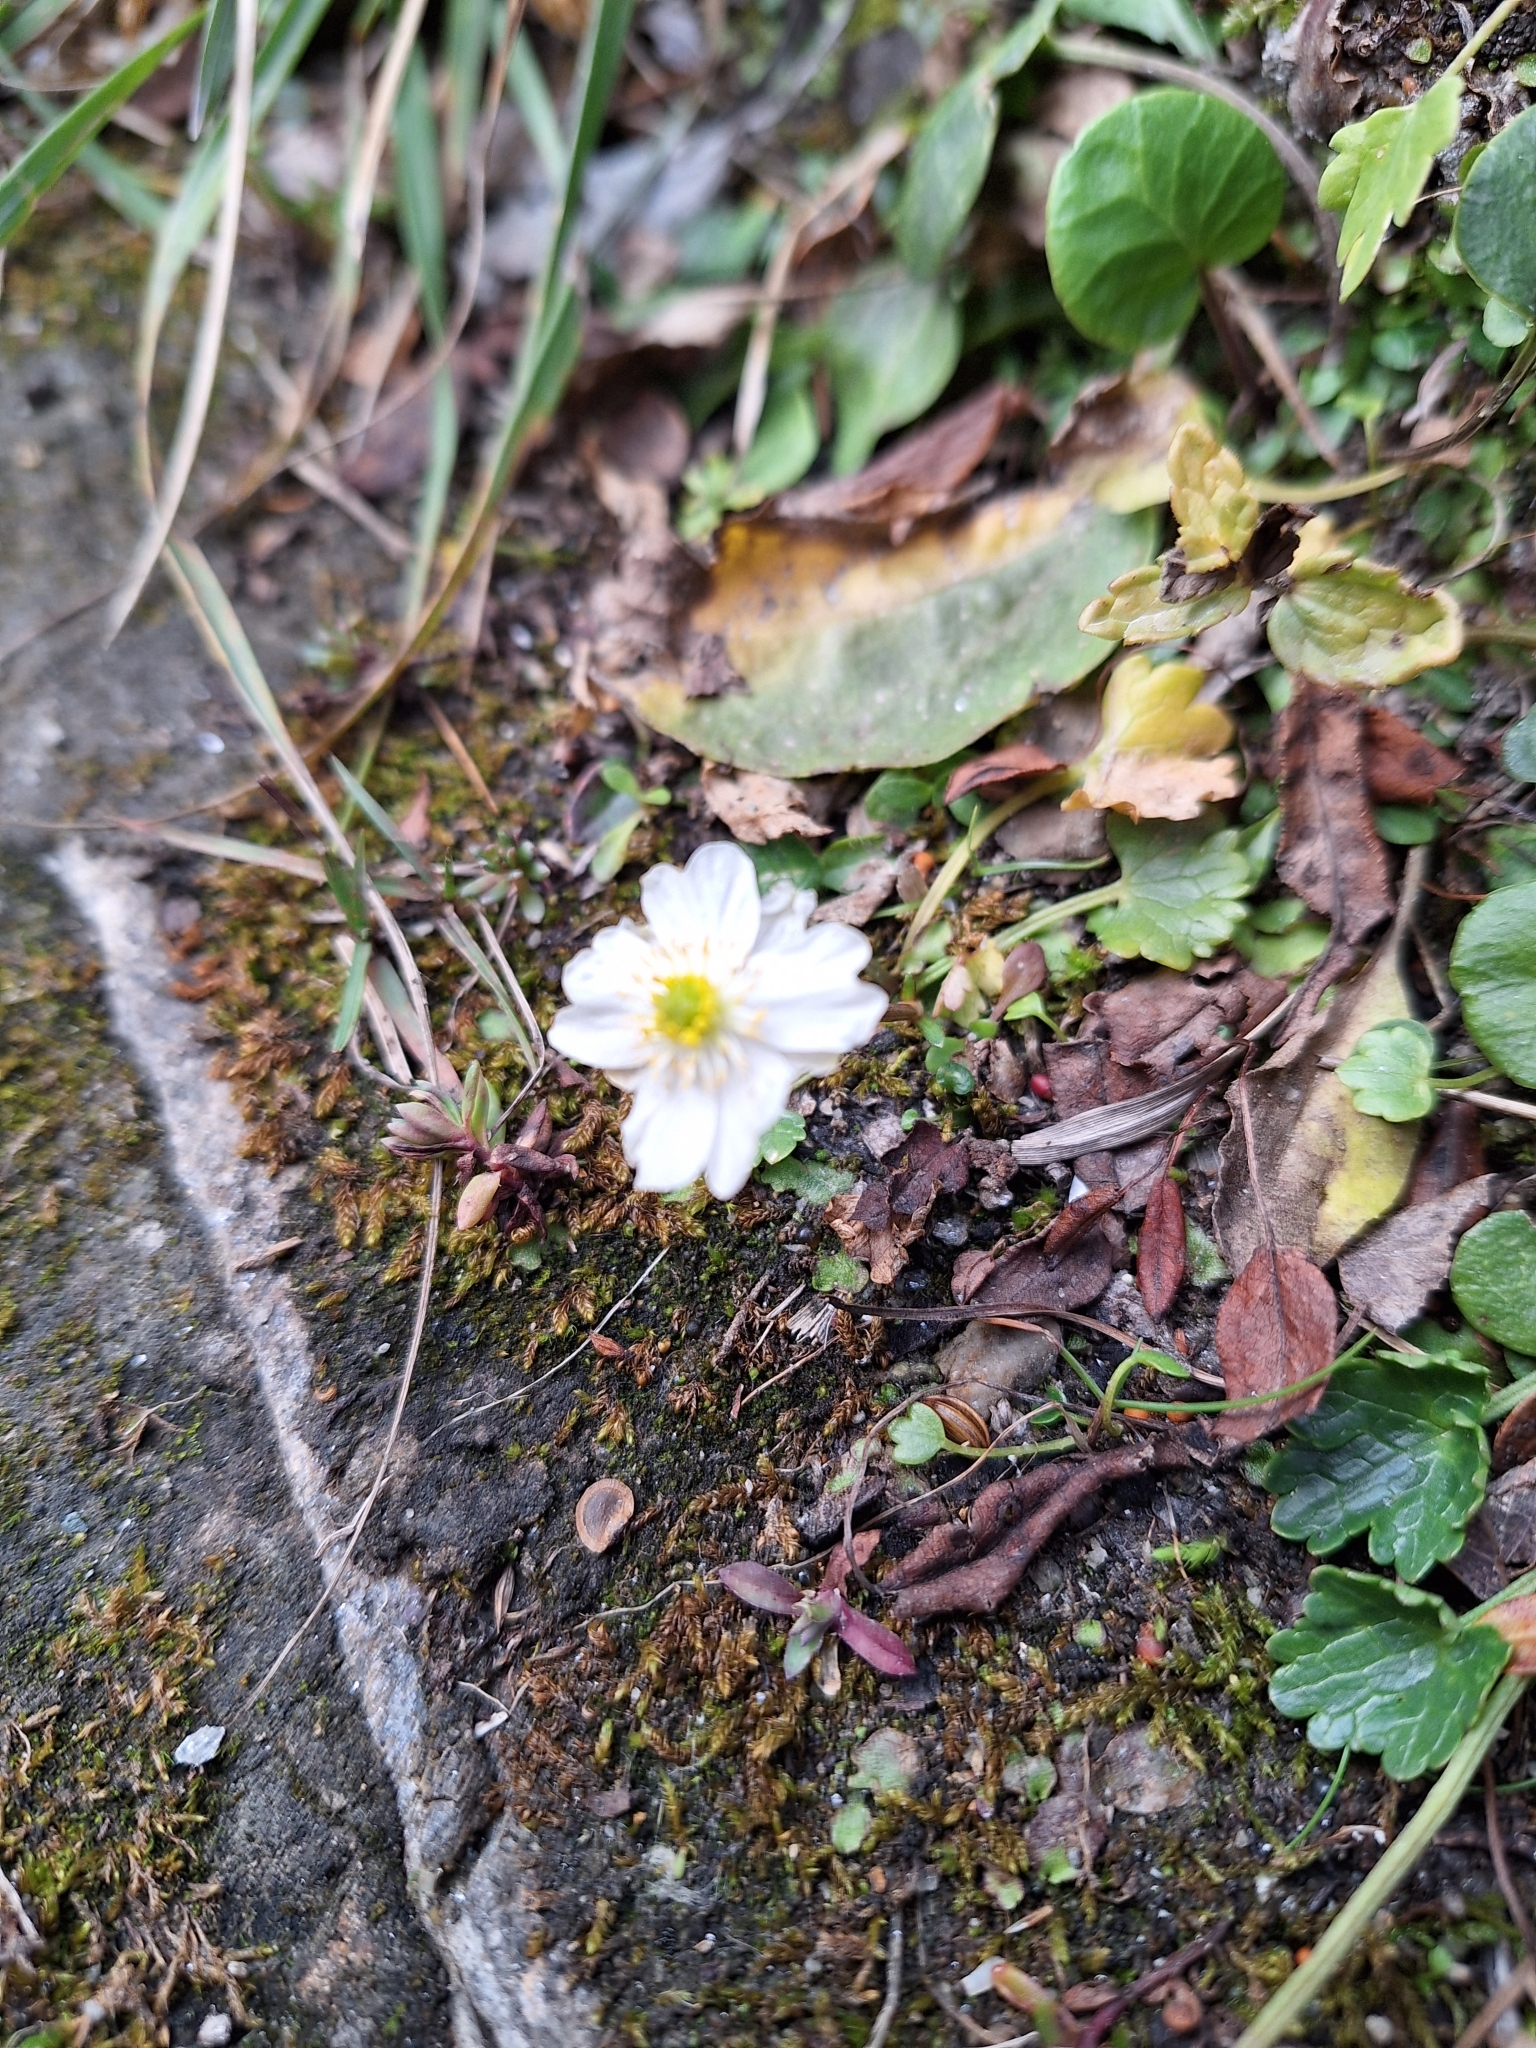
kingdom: Plantae
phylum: Tracheophyta
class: Magnoliopsida
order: Ranunculales
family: Ranunculaceae
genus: Ranunculus
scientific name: Ranunculus alpestris
